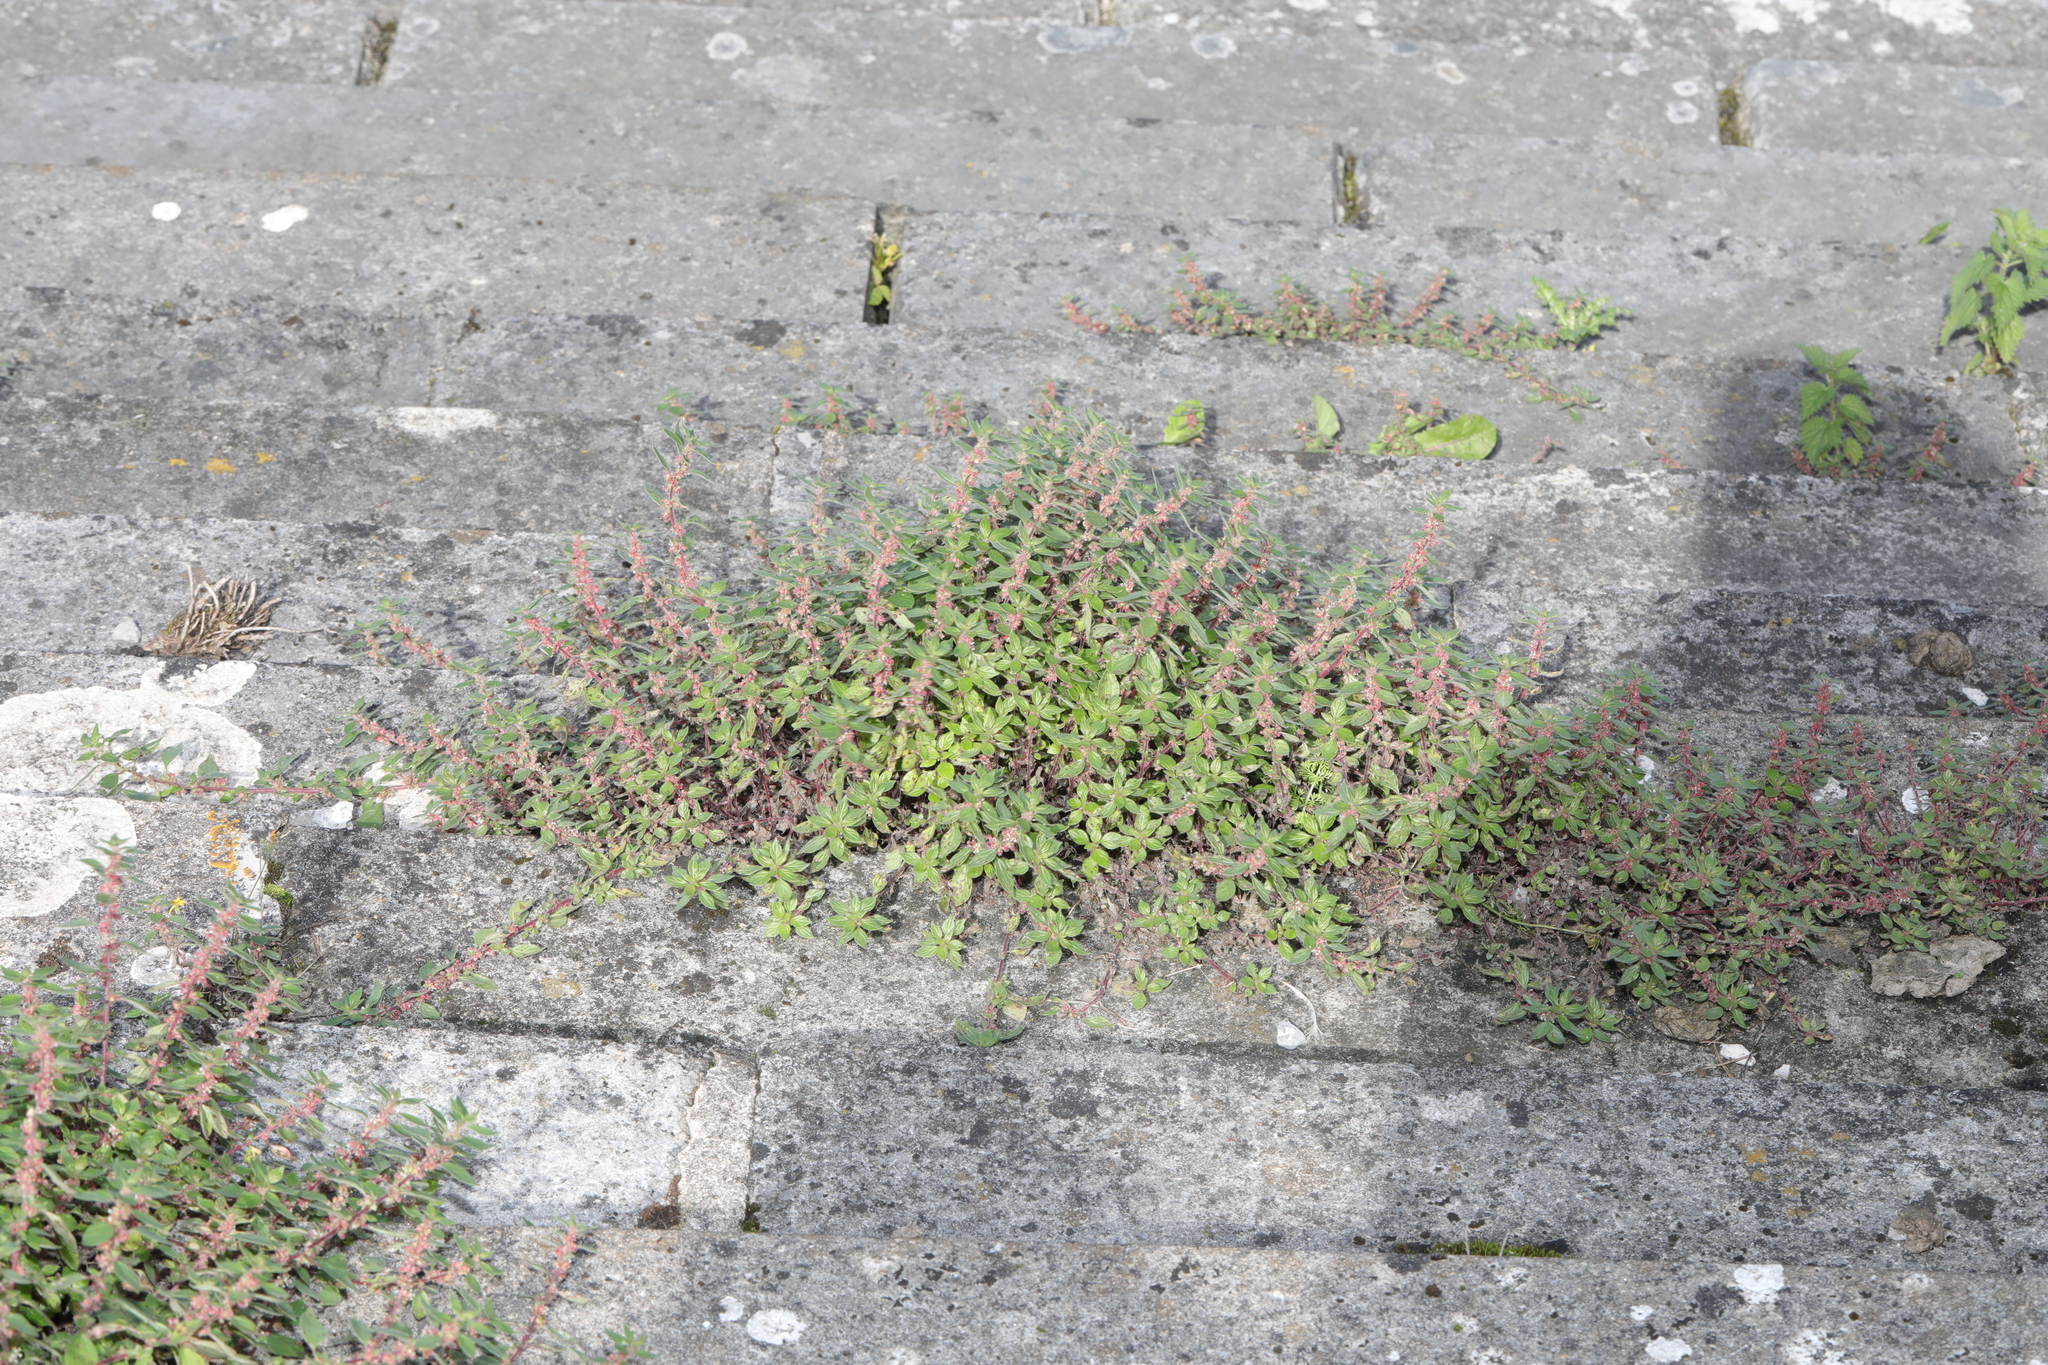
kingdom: Plantae
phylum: Tracheophyta
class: Magnoliopsida
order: Rosales
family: Urticaceae
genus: Parietaria
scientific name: Parietaria judaica
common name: Pellitory-of-the-wall
